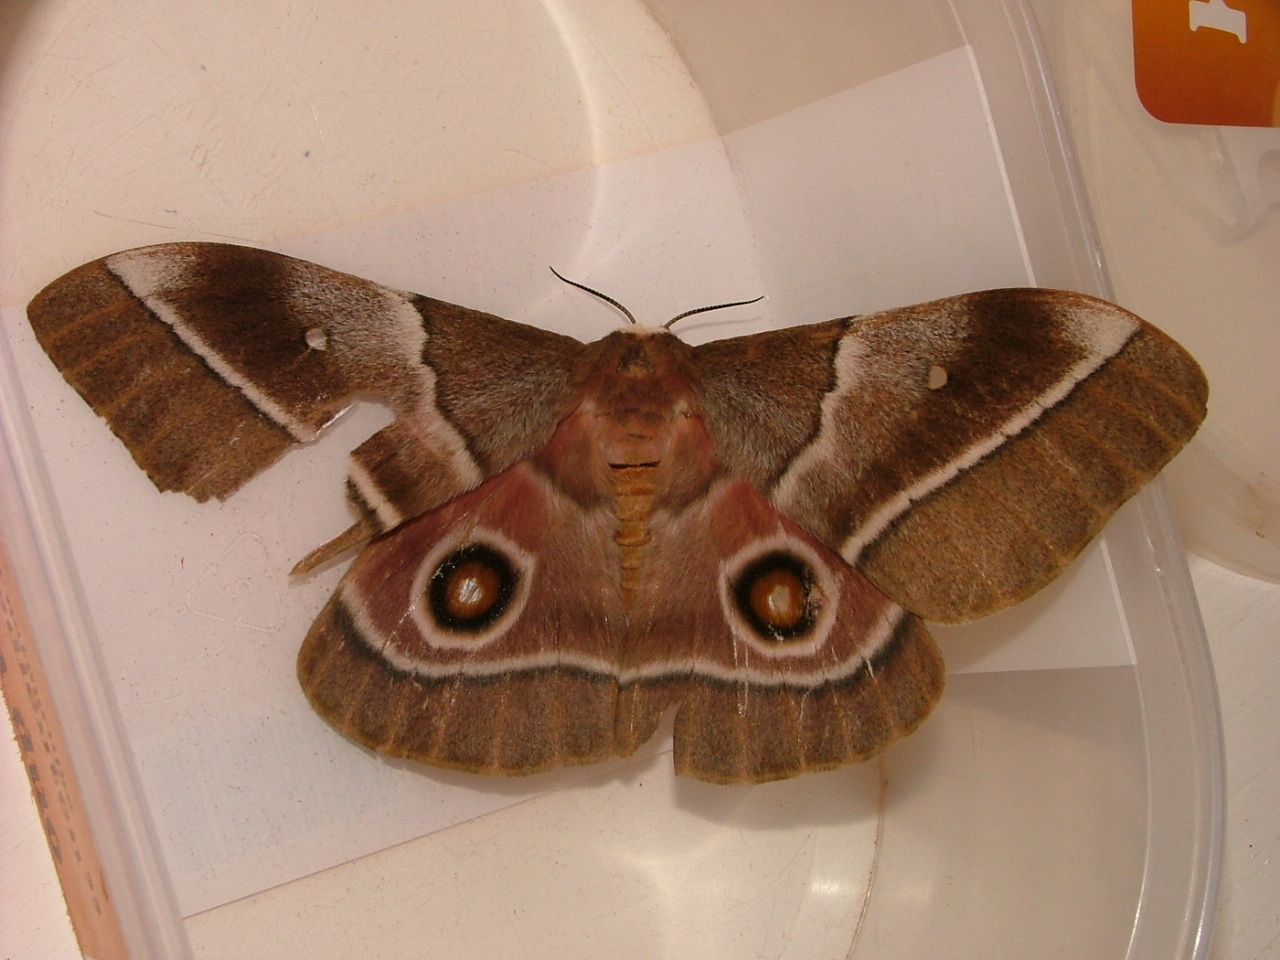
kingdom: Animalia
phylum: Arthropoda
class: Insecta
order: Lepidoptera
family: Saturniidae
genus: Gonimbrasia
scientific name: Gonimbrasia belina
